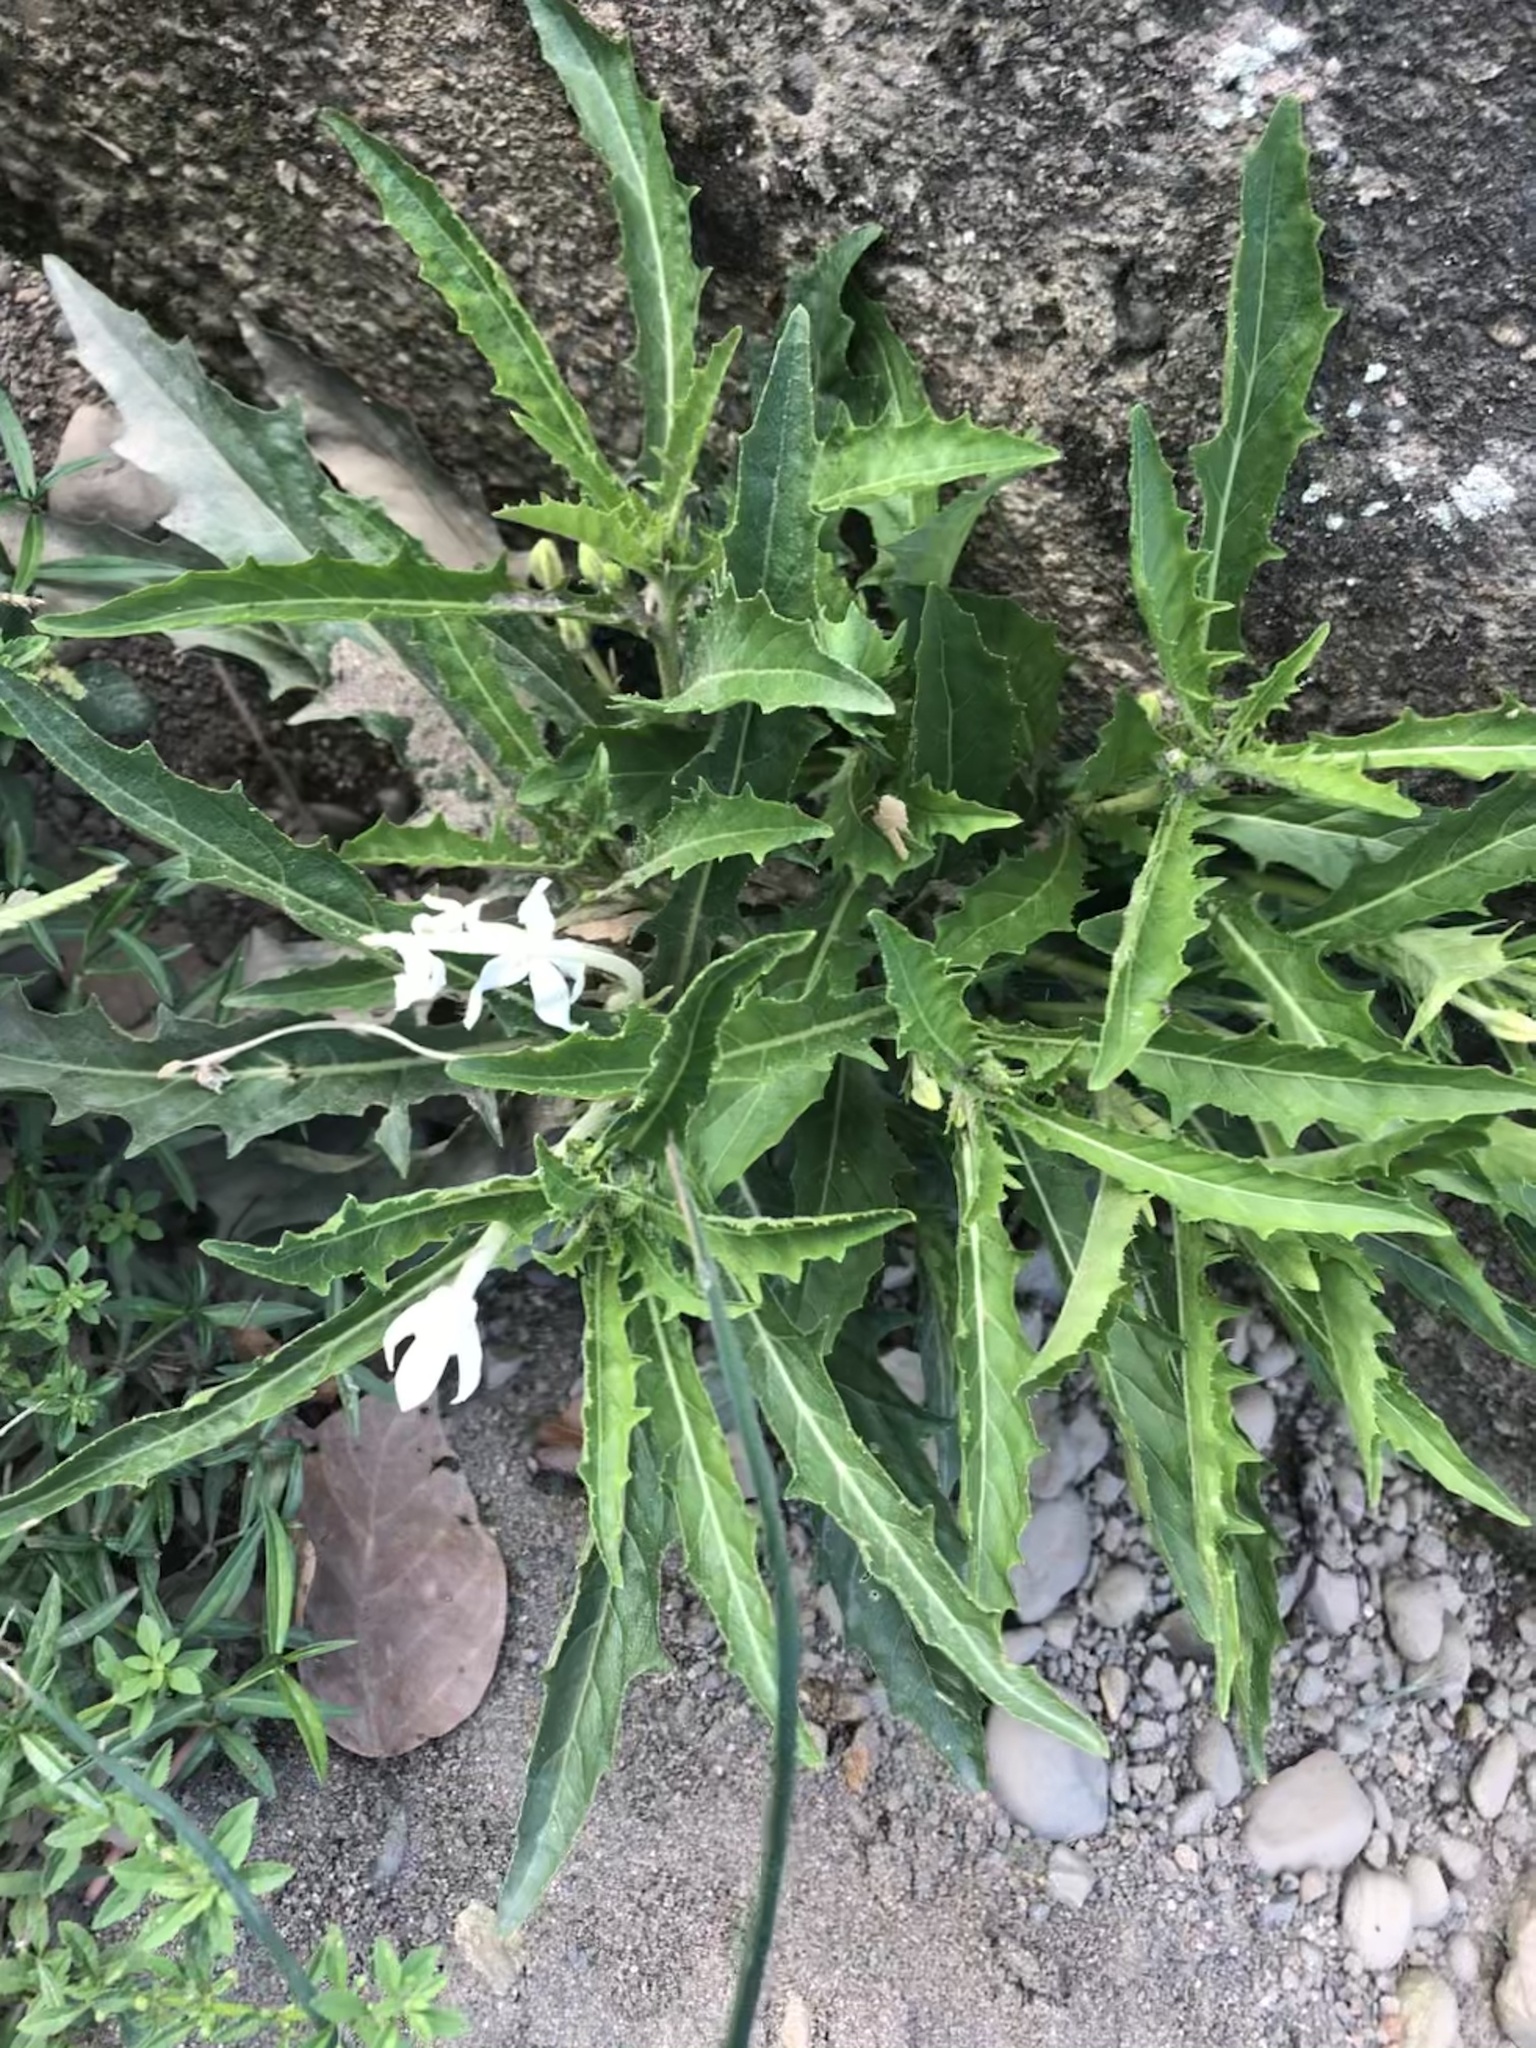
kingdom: Plantae
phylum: Tracheophyta
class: Magnoliopsida
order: Asterales
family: Campanulaceae
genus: Hippobroma
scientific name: Hippobroma longiflora
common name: Madamfate
